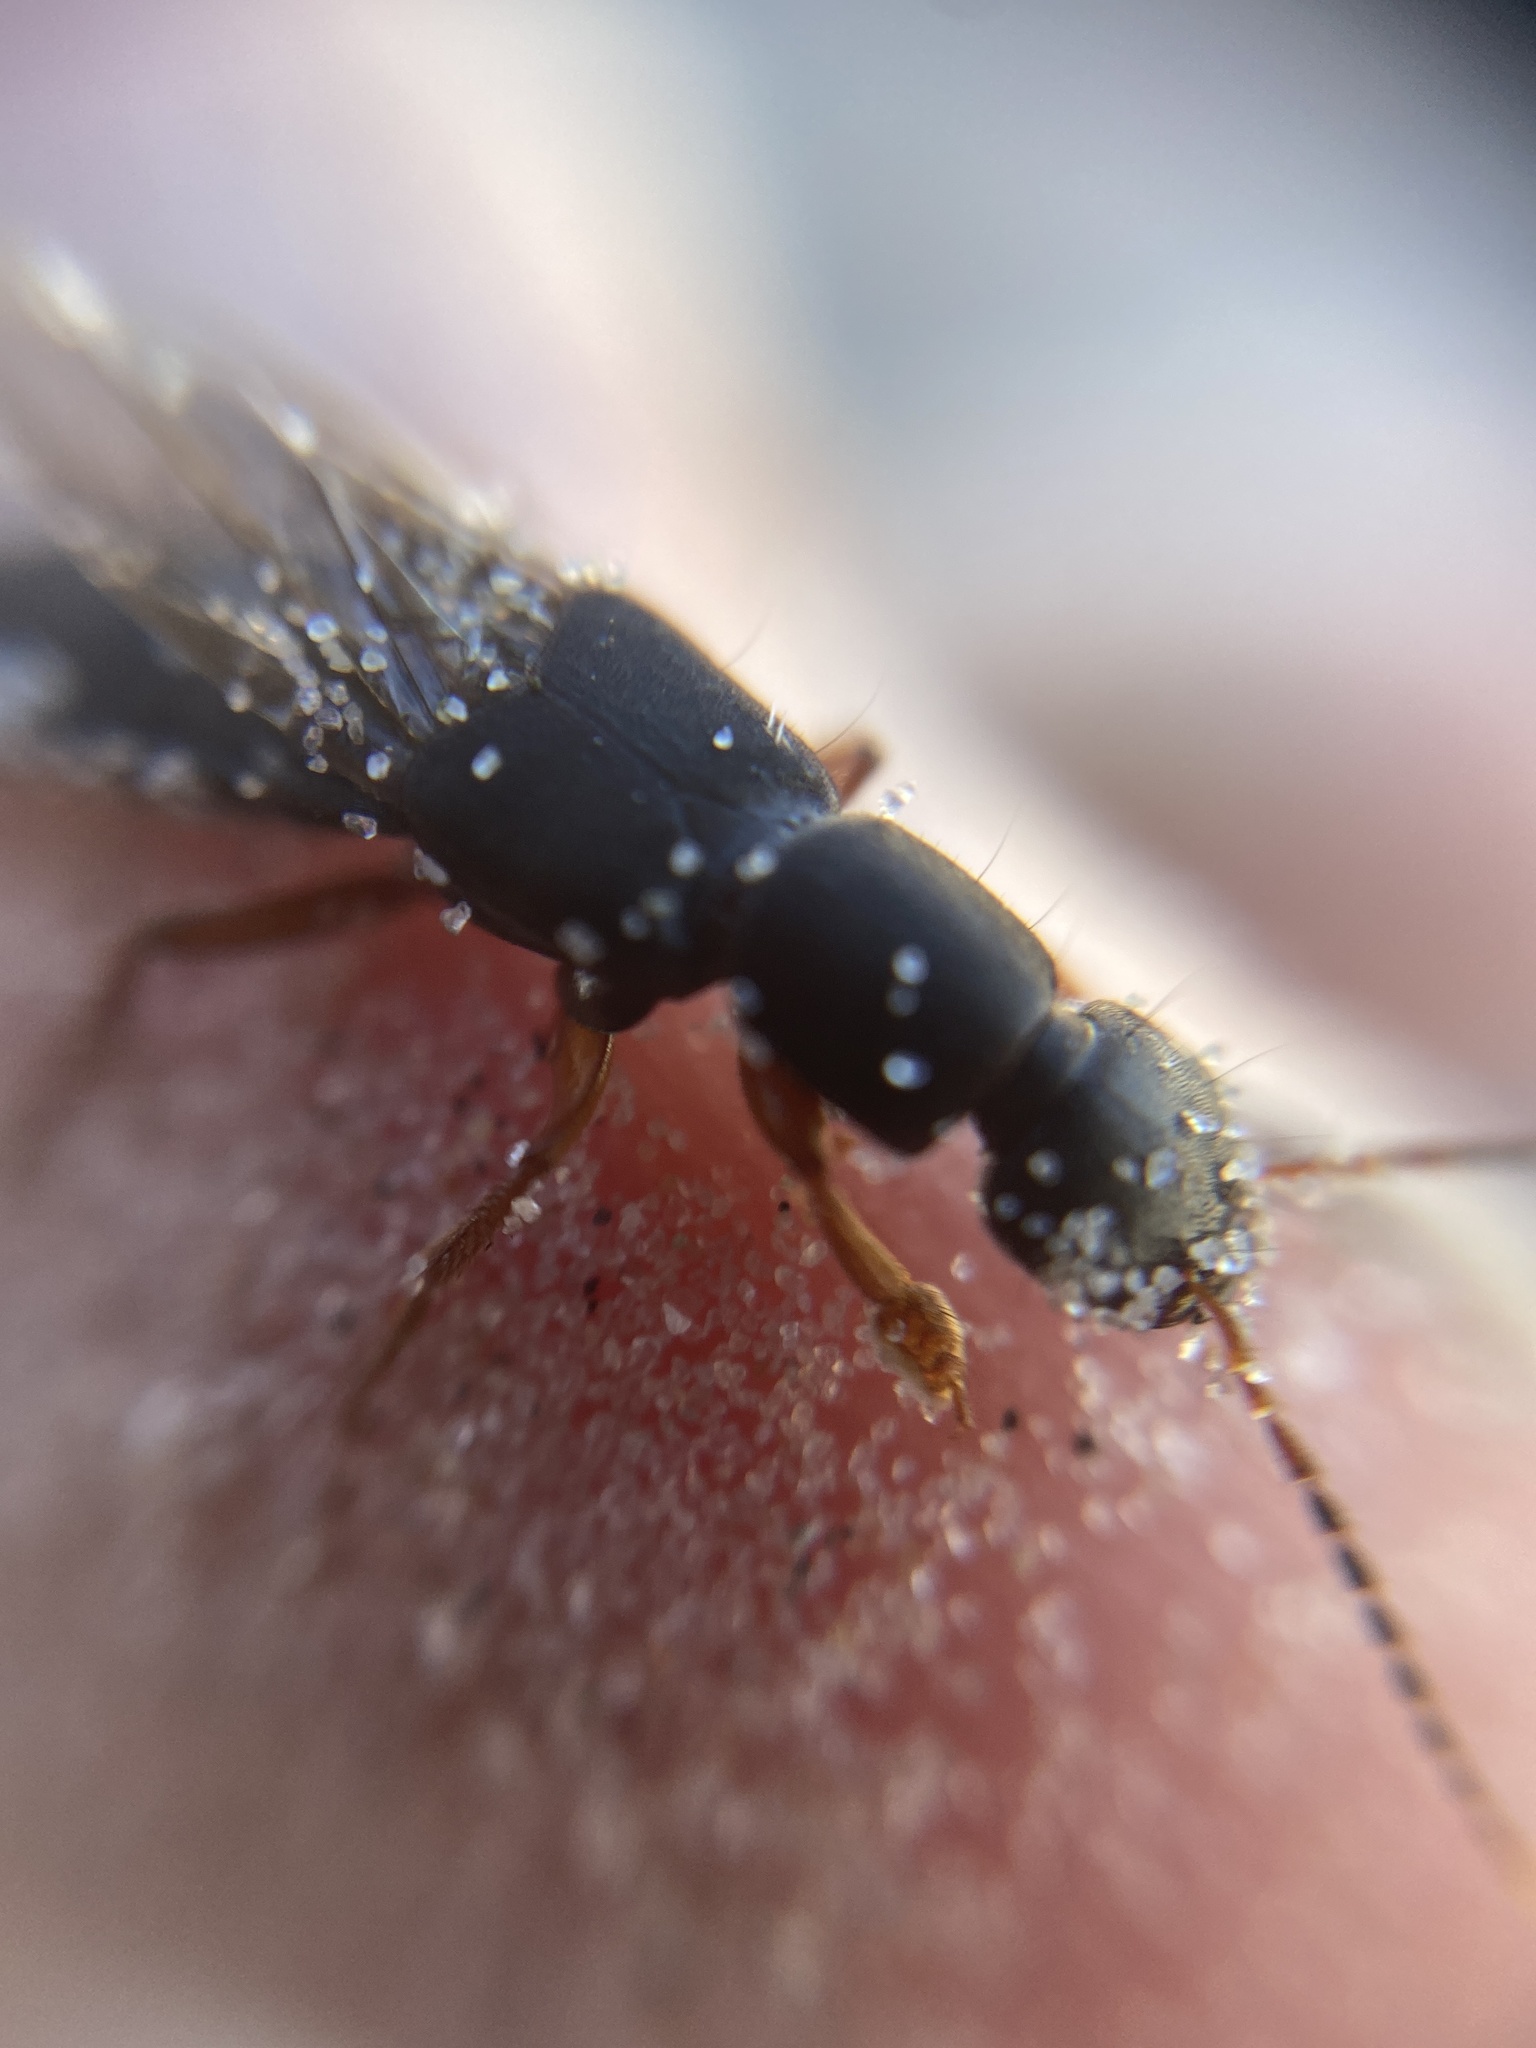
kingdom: Animalia
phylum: Arthropoda
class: Insecta
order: Coleoptera
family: Staphylinidae
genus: Tasgius
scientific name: Tasgius morsitans
